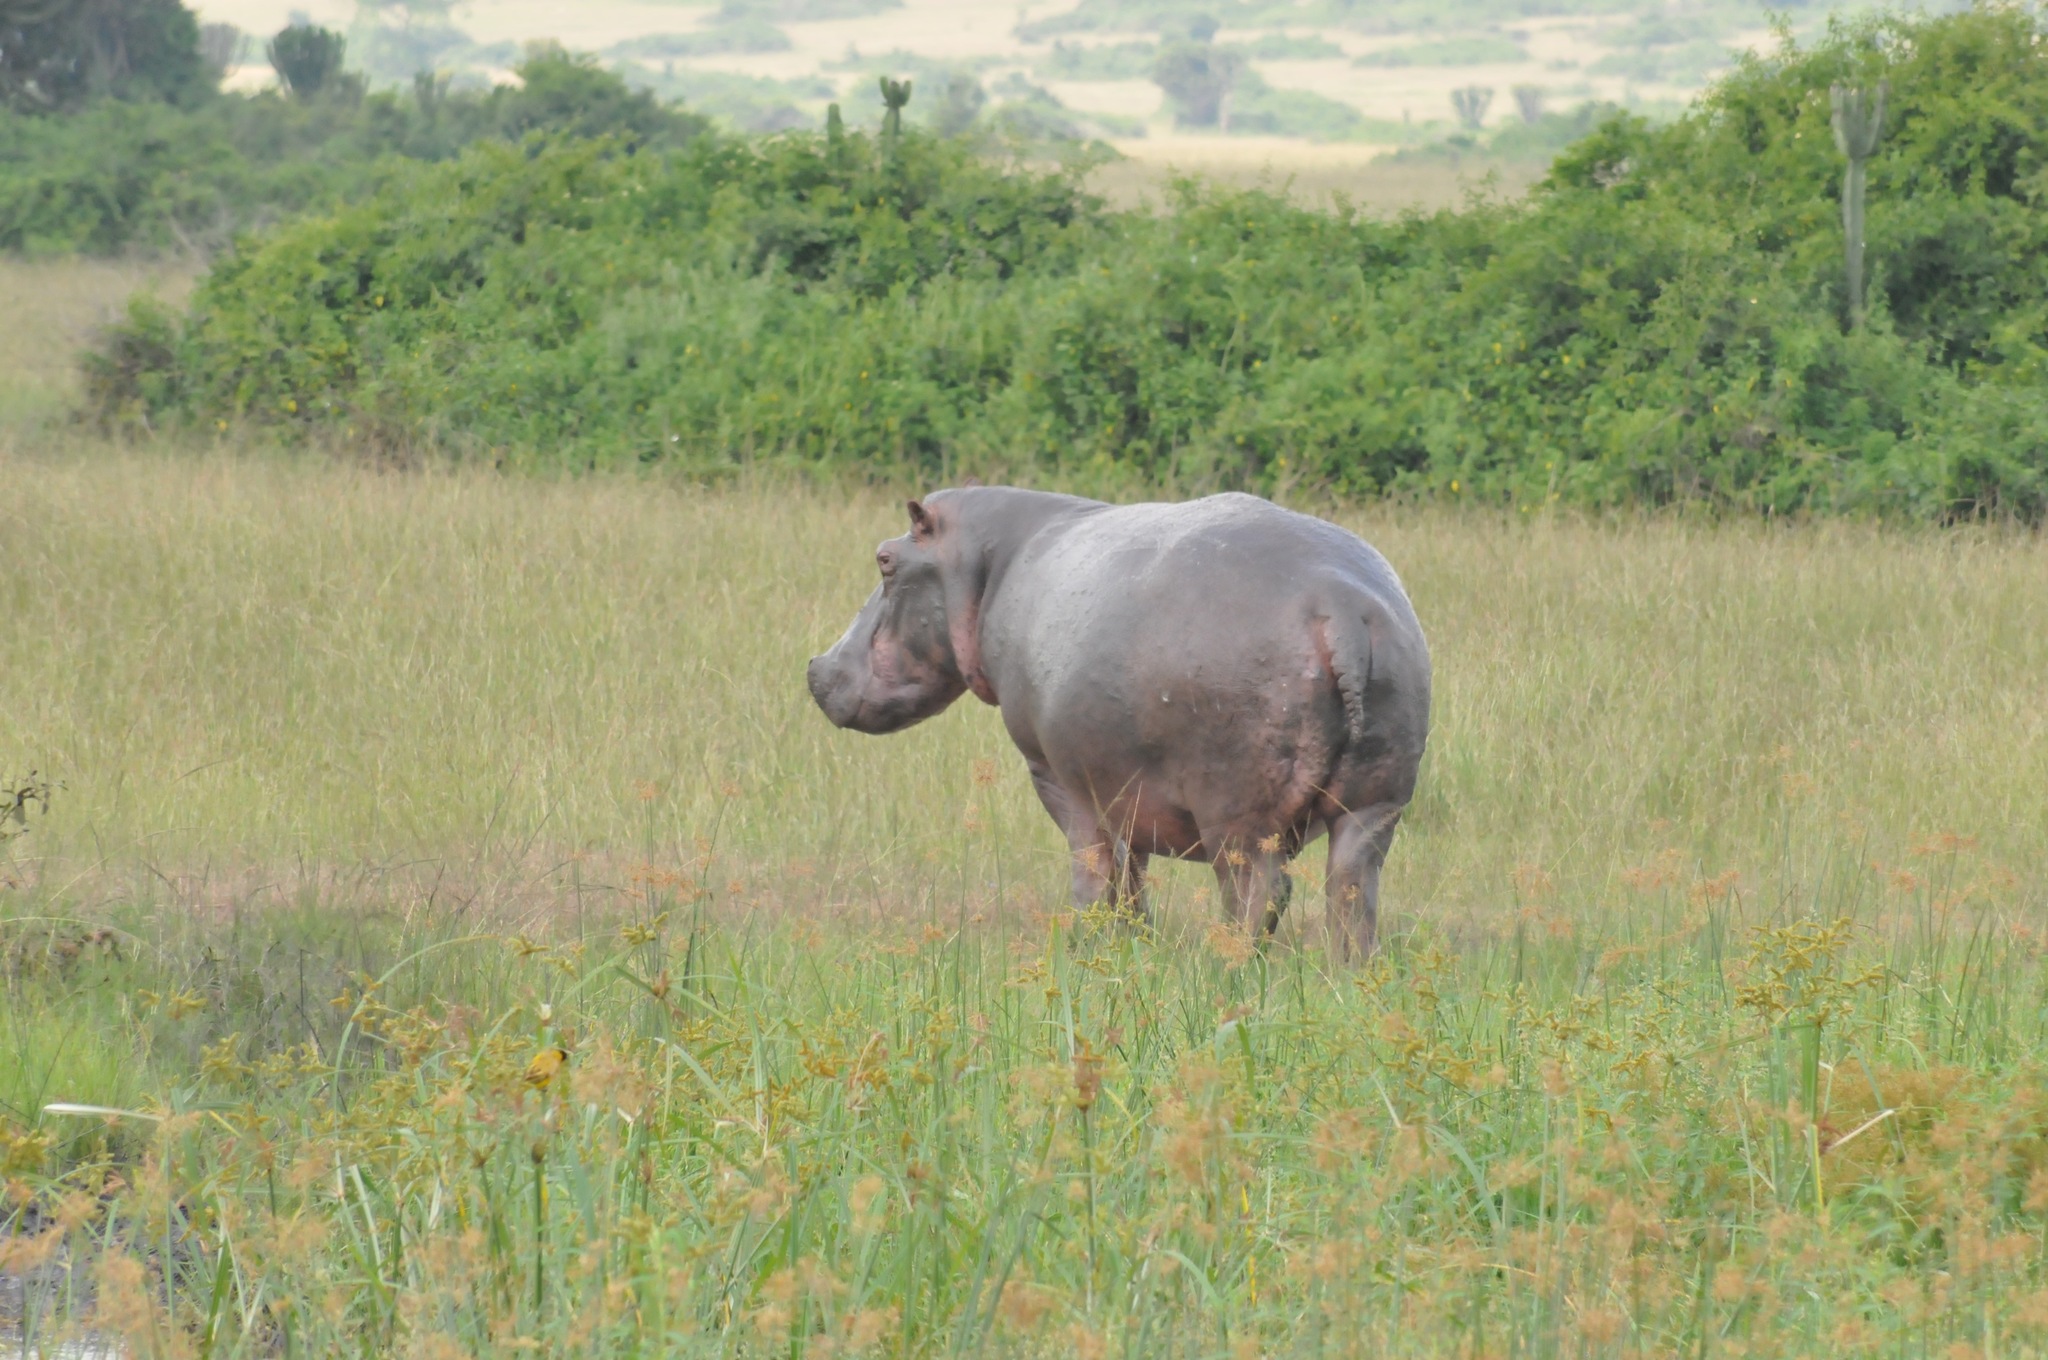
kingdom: Animalia
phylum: Chordata
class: Mammalia
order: Artiodactyla
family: Hippopotamidae
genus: Hippopotamus
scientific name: Hippopotamus amphibius
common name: Common hippopotamus
